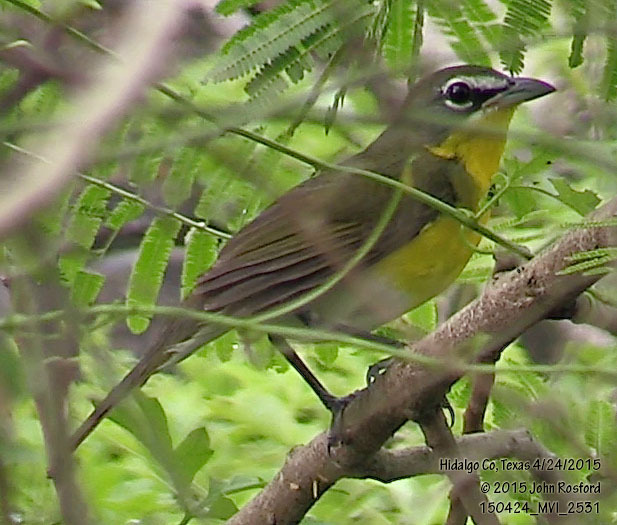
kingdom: Animalia
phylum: Chordata
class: Aves
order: Passeriformes
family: Parulidae
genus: Icteria
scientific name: Icteria virens
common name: Yellow-breasted chat
